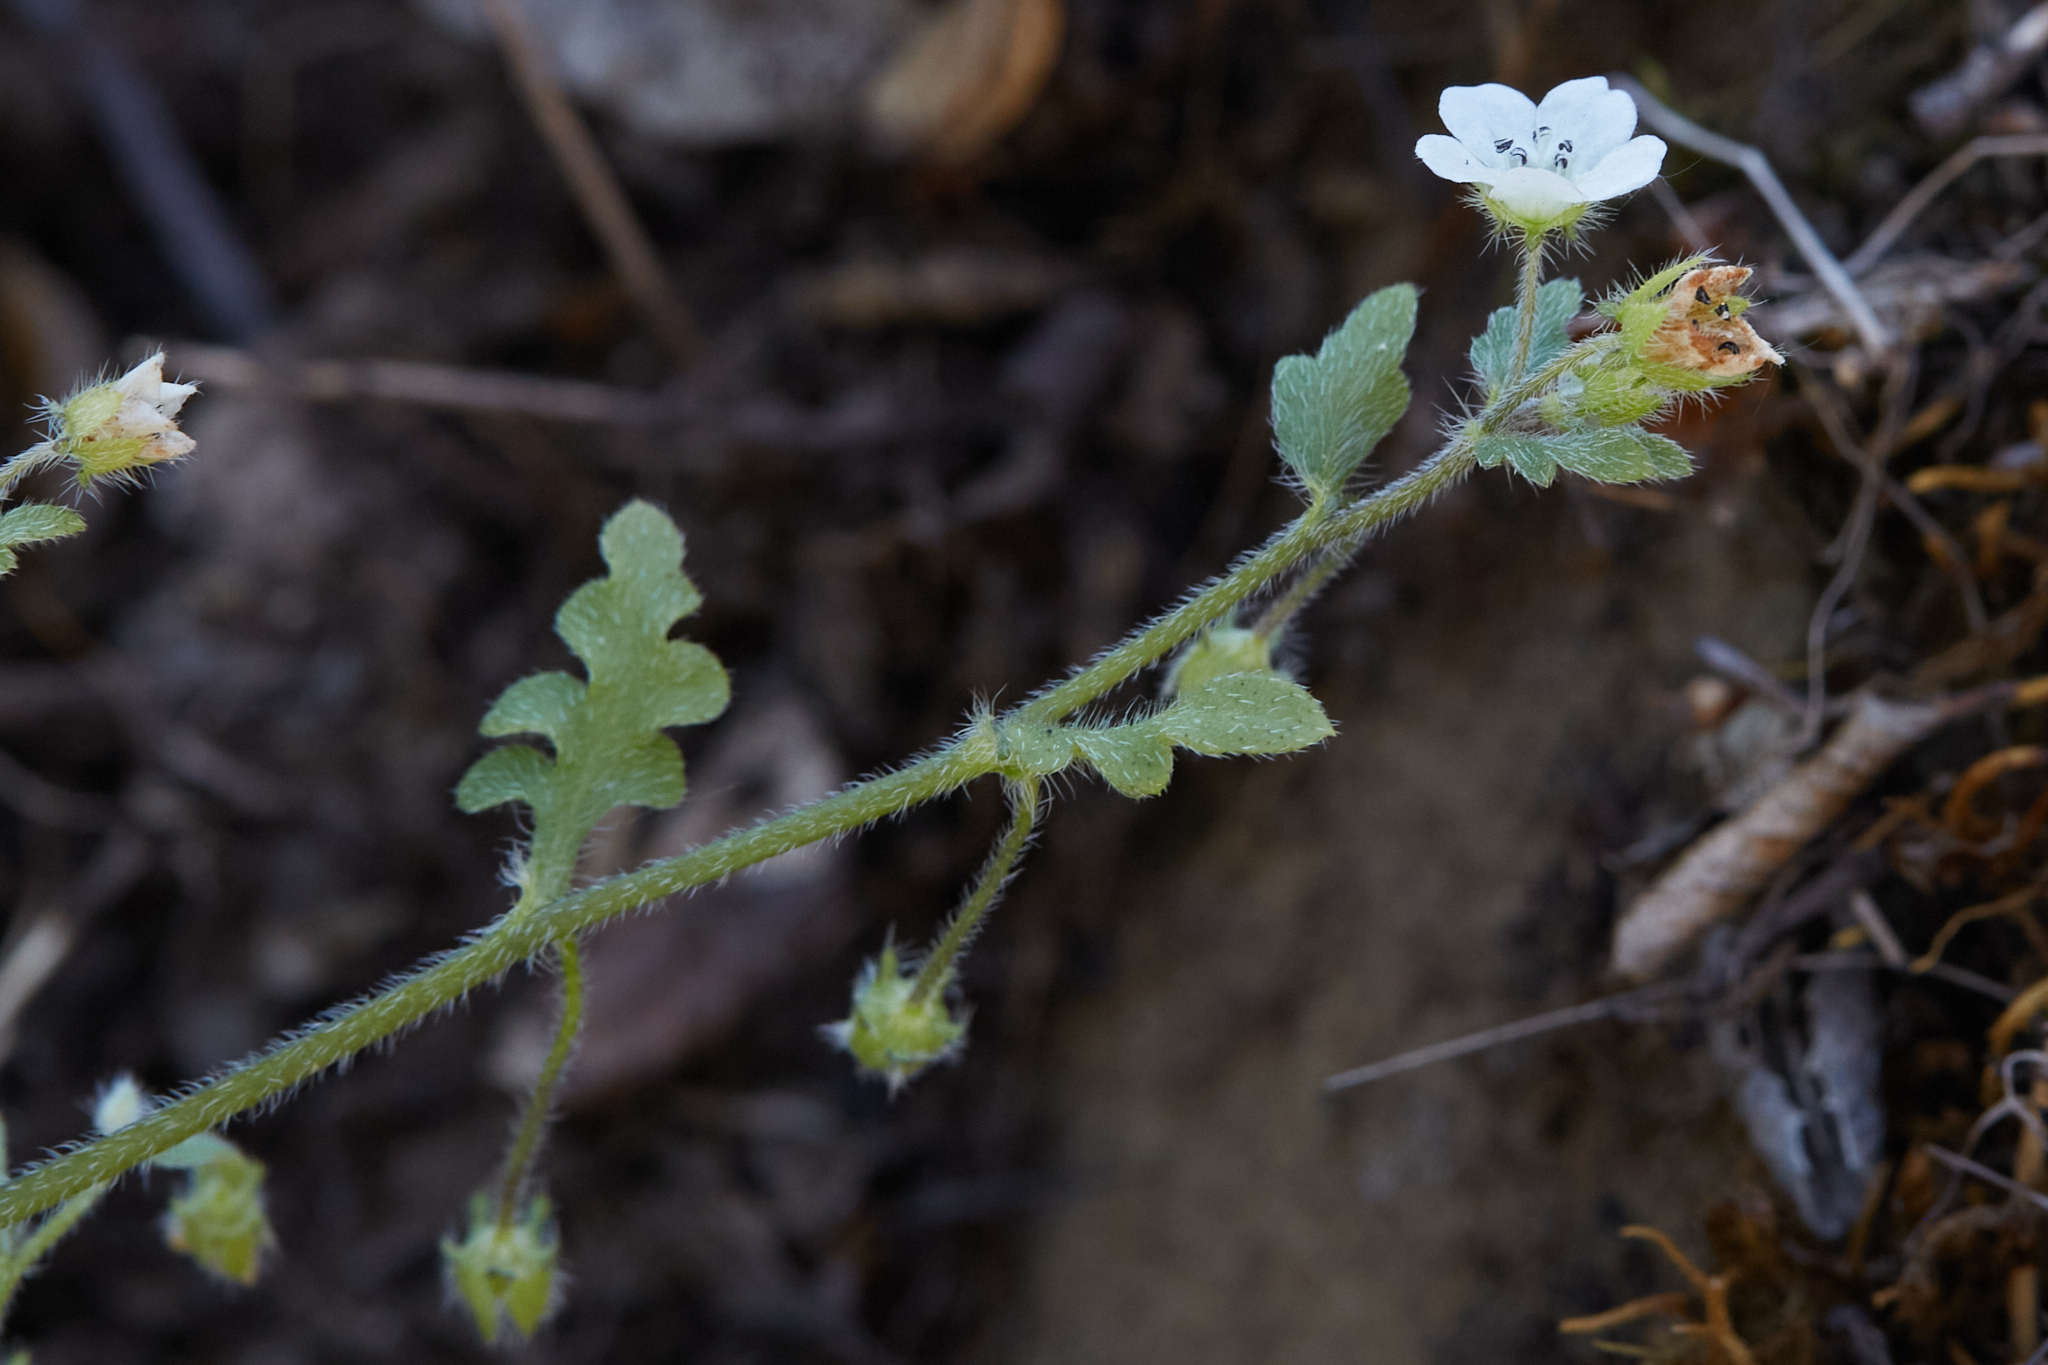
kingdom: Plantae
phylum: Tracheophyta
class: Magnoliopsida
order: Boraginales
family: Hydrophyllaceae
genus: Nemophila
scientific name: Nemophila heterophylla
